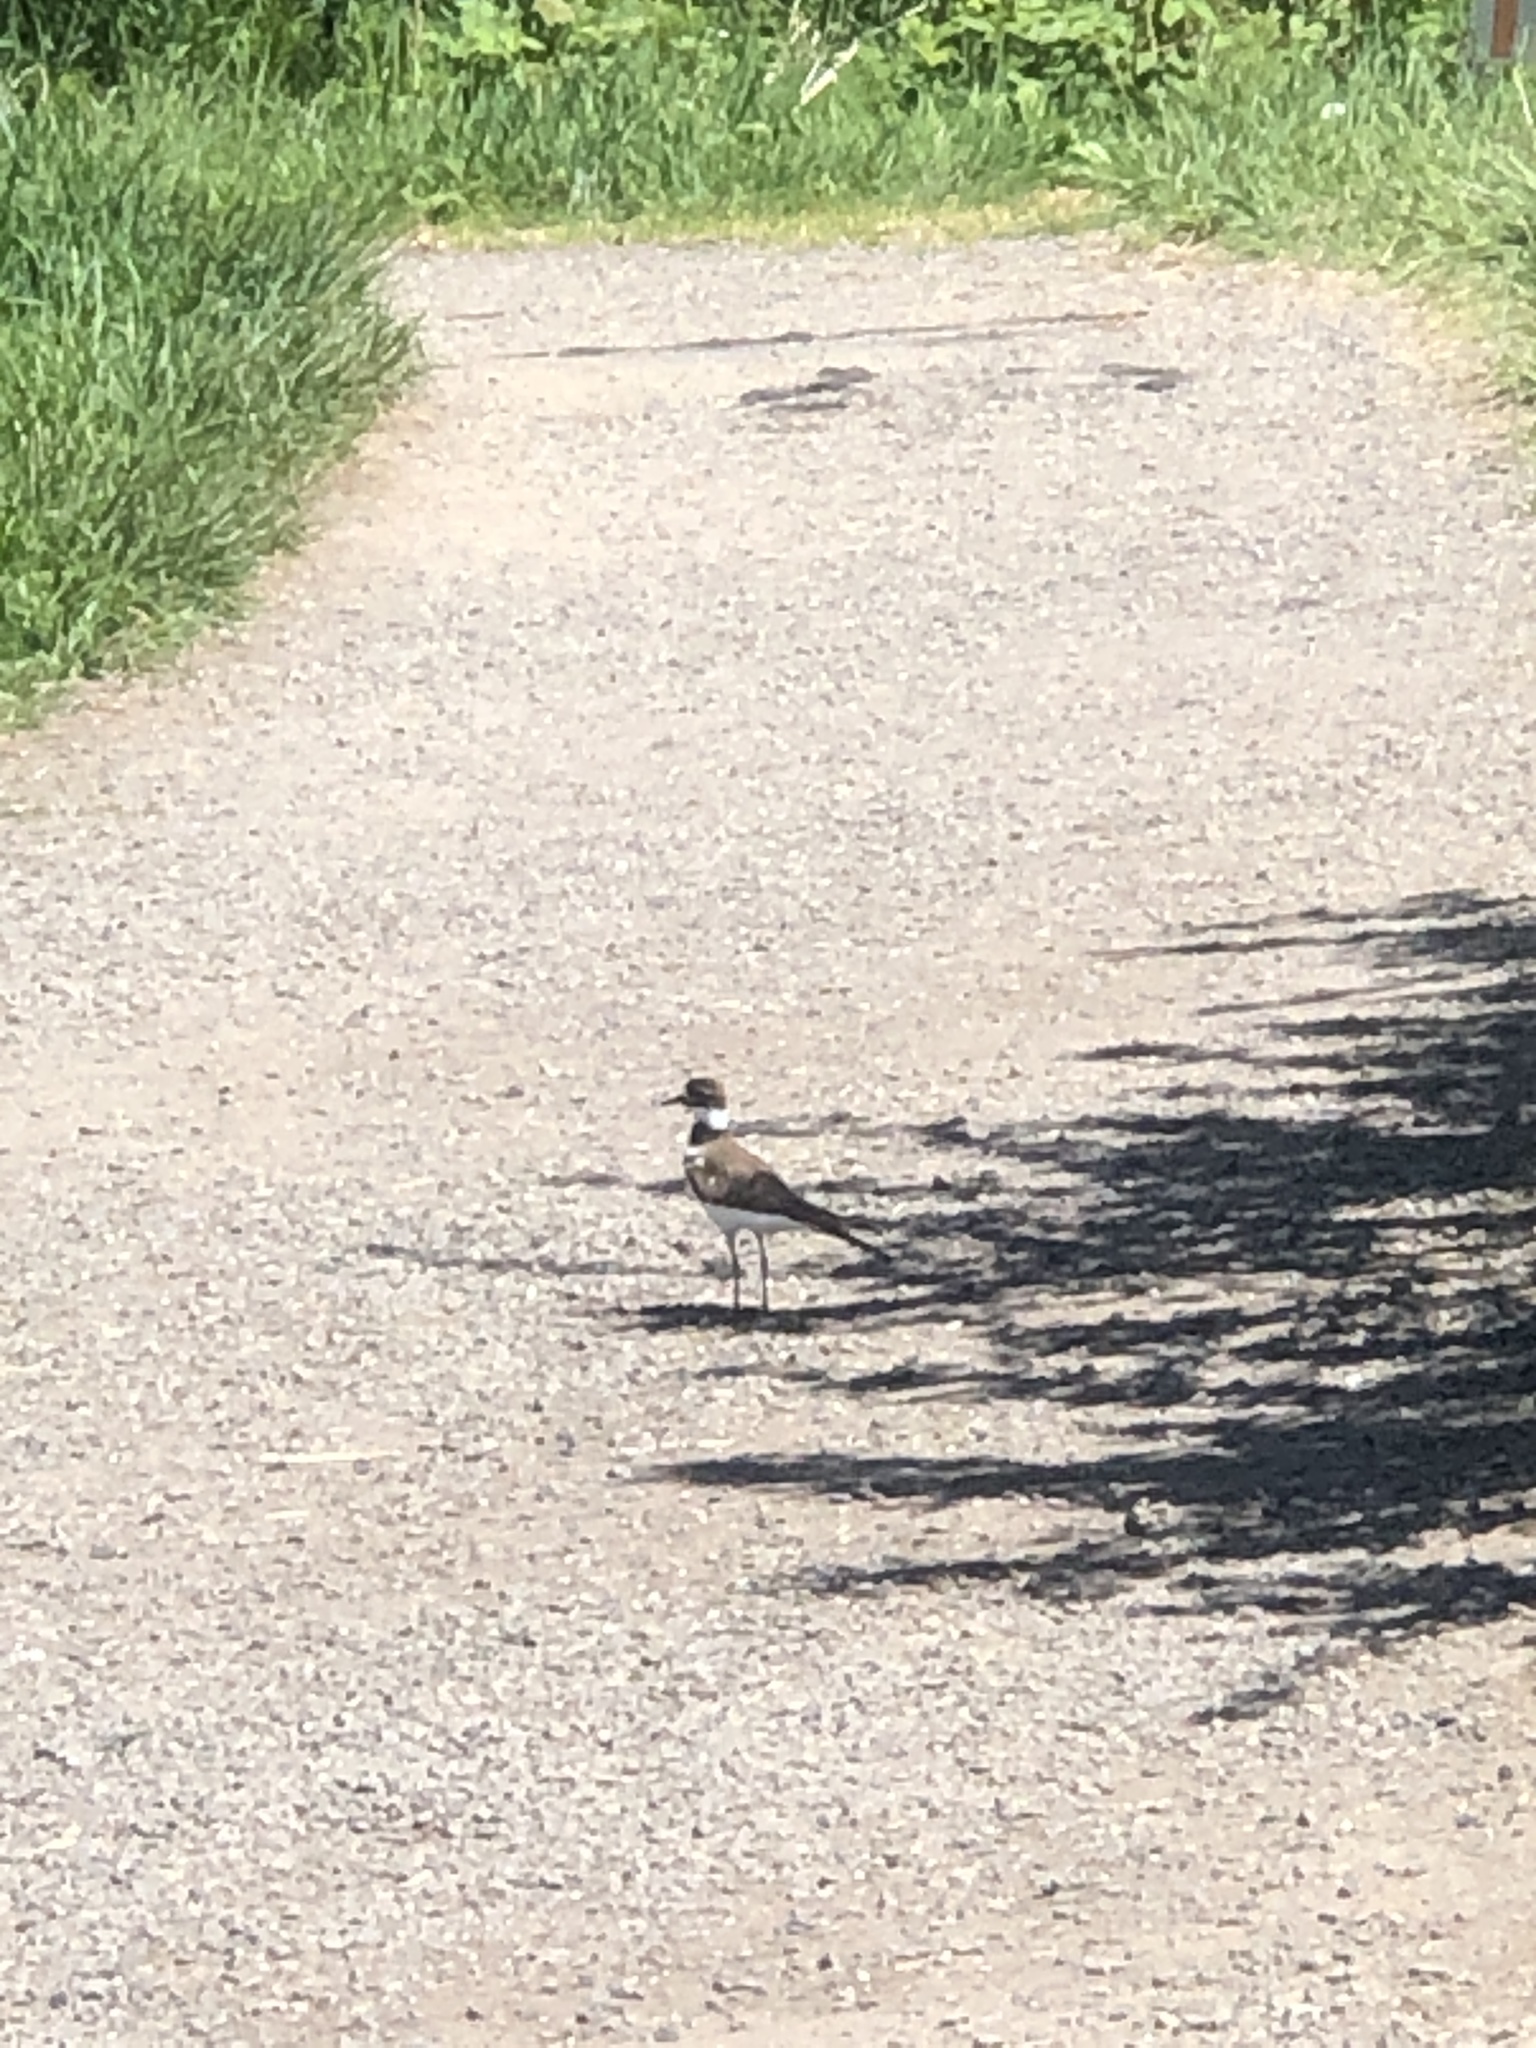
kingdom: Animalia
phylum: Chordata
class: Aves
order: Charadriiformes
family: Charadriidae
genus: Charadrius
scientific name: Charadrius vociferus
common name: Killdeer
